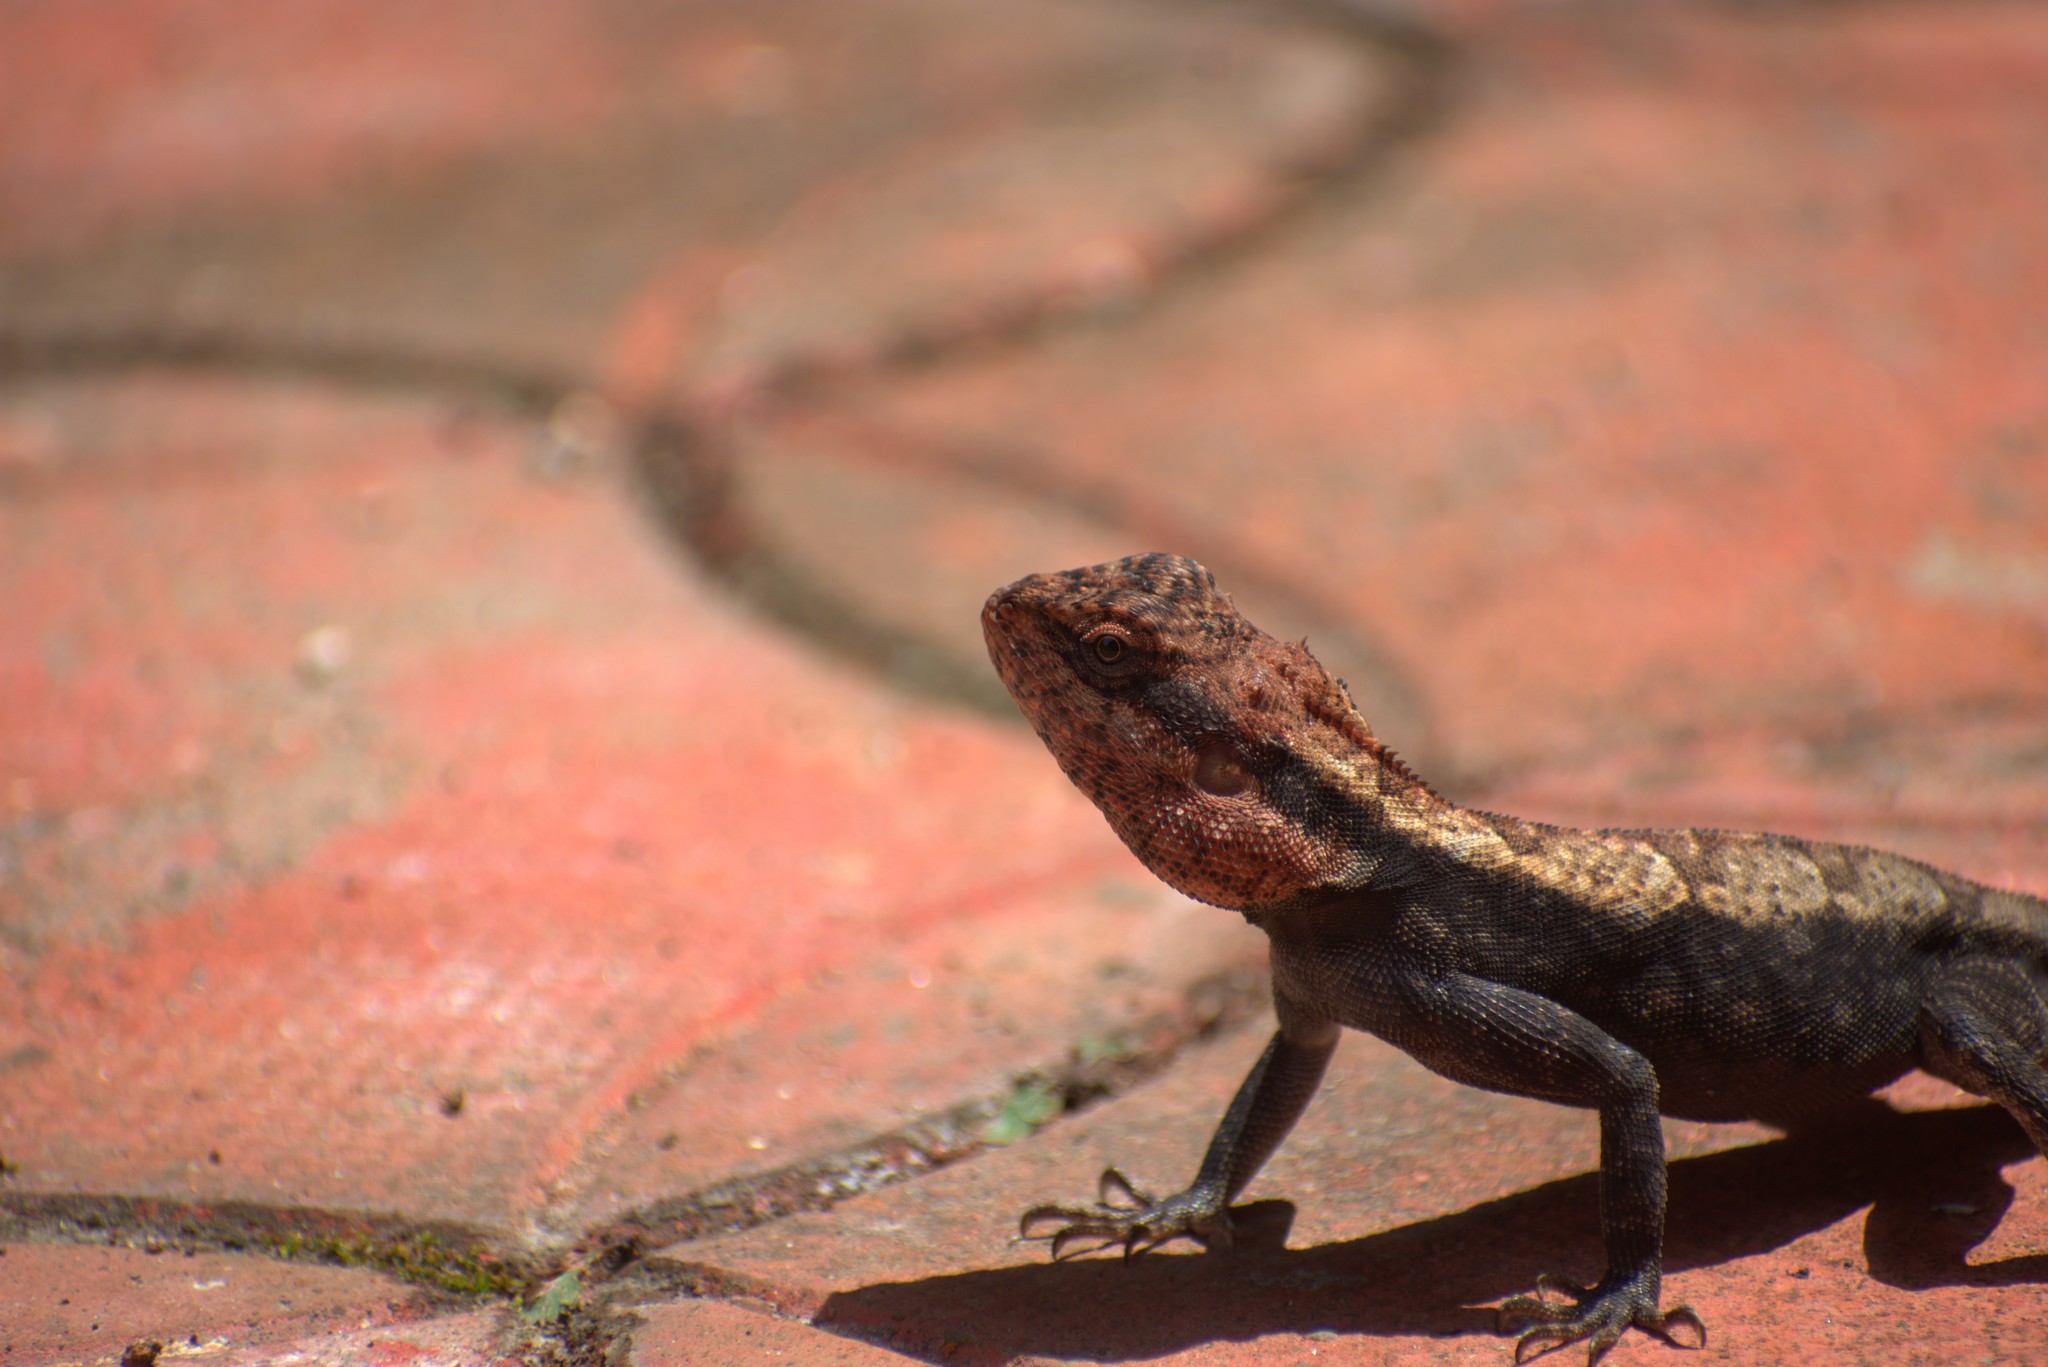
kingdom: Animalia
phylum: Chordata
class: Squamata
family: Agamidae
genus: Psammophilus
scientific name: Psammophilus dorsalis
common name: South indian rock agama
